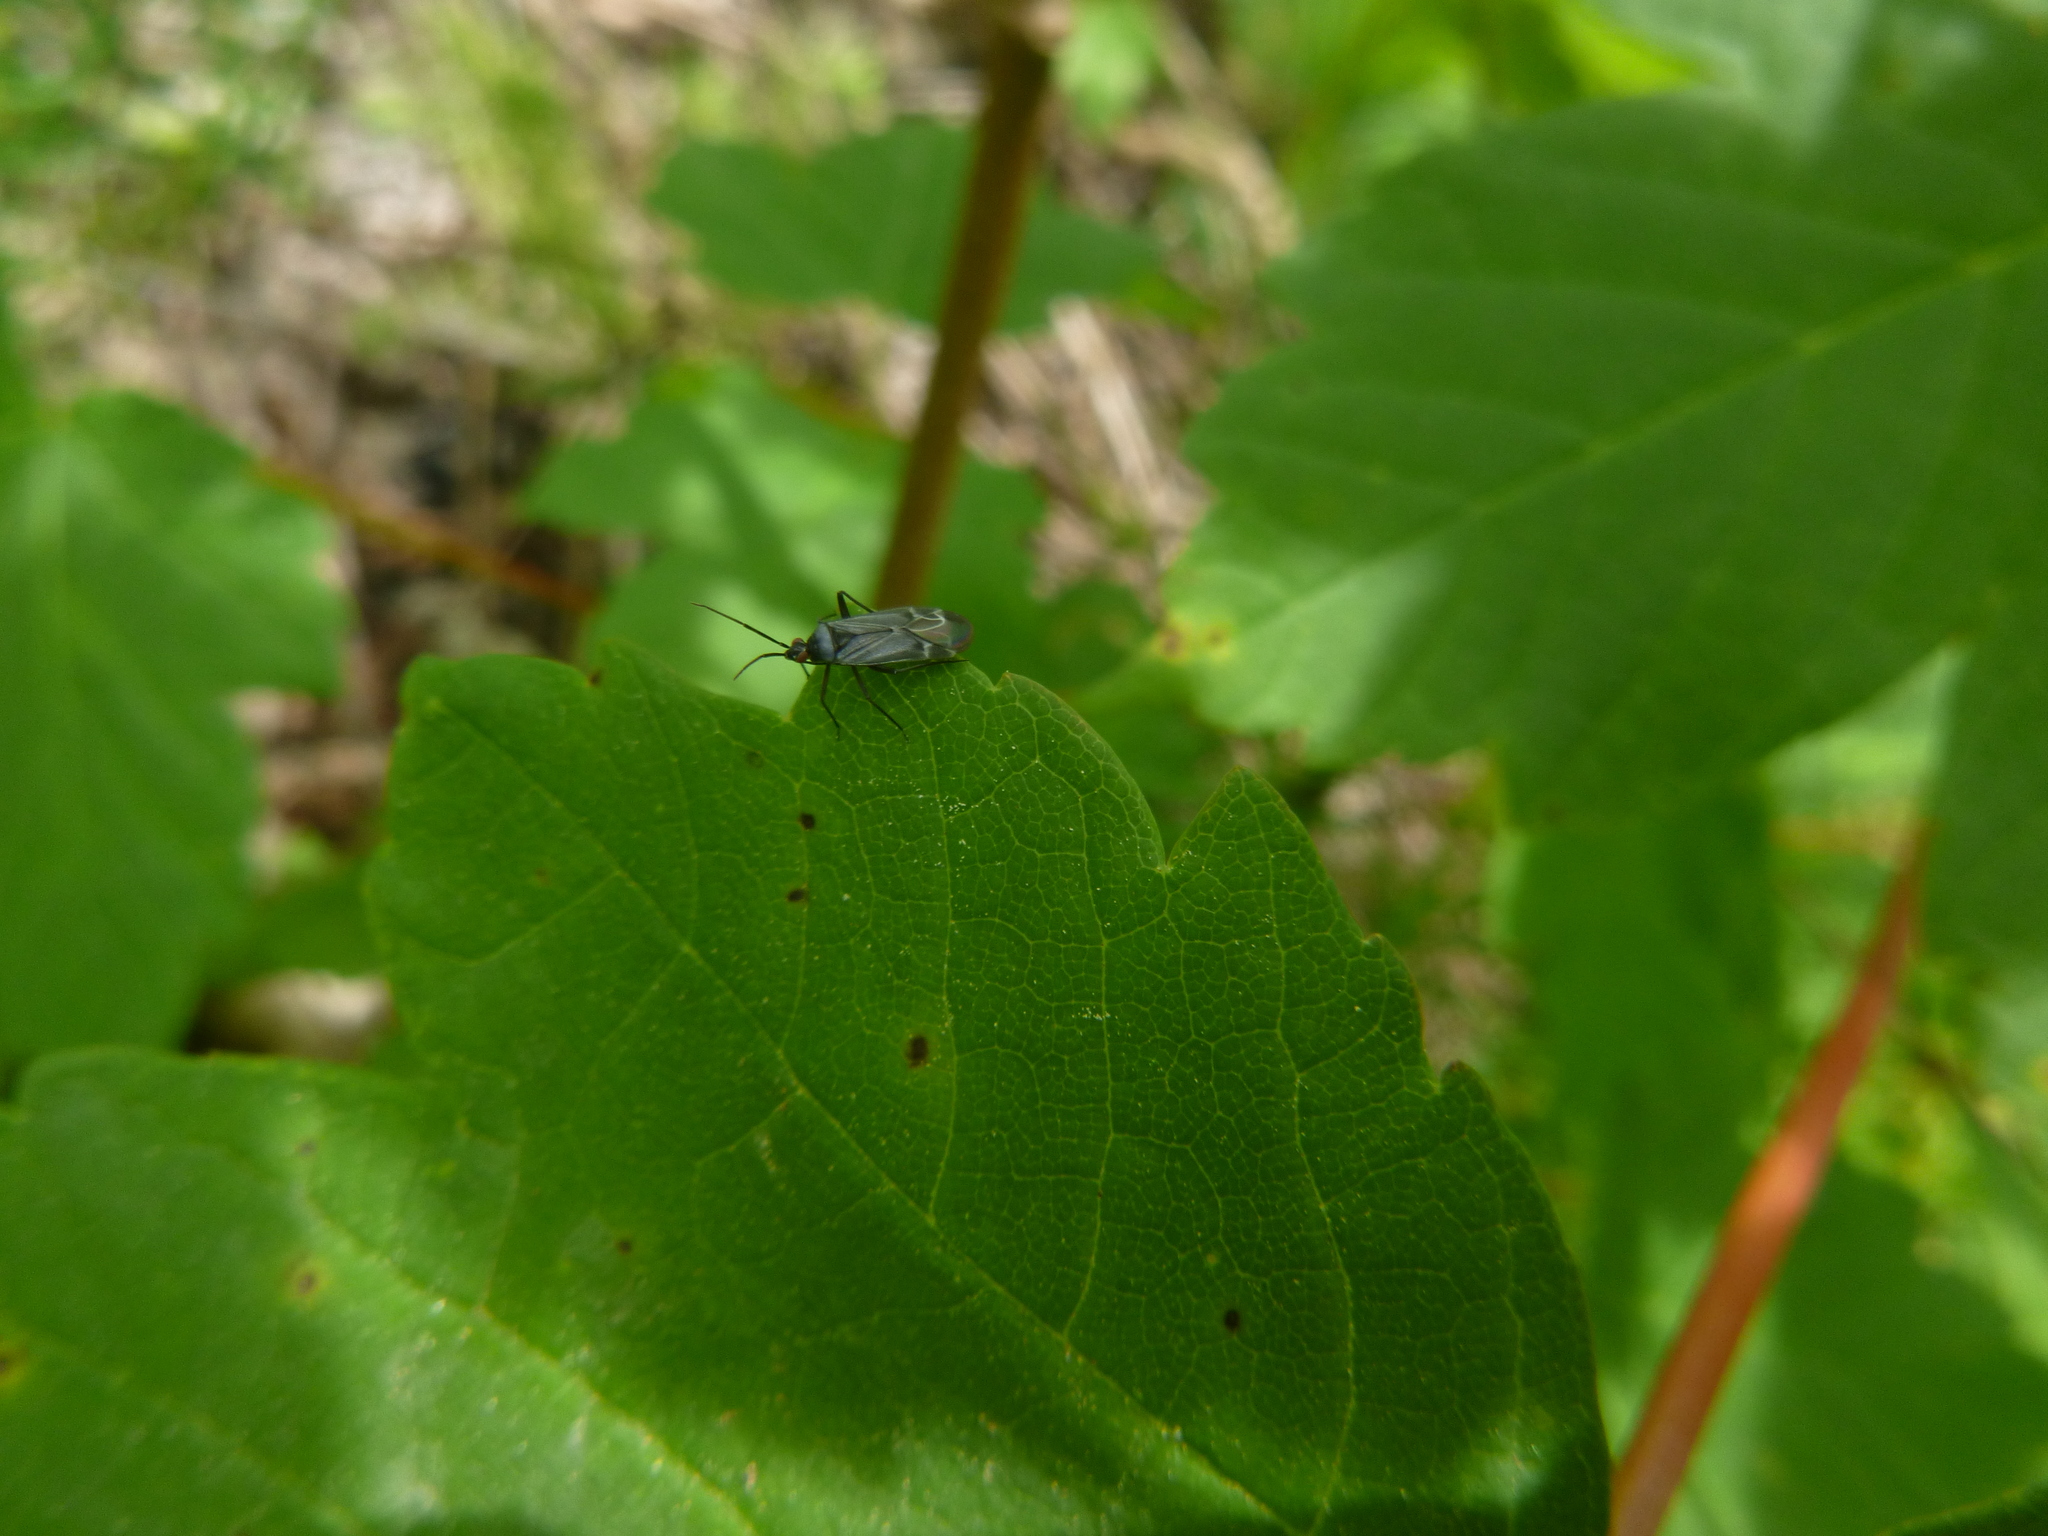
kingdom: Animalia
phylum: Arthropoda
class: Insecta
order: Hemiptera
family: Miridae
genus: Macrotylus
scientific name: Macrotylus herrichi
